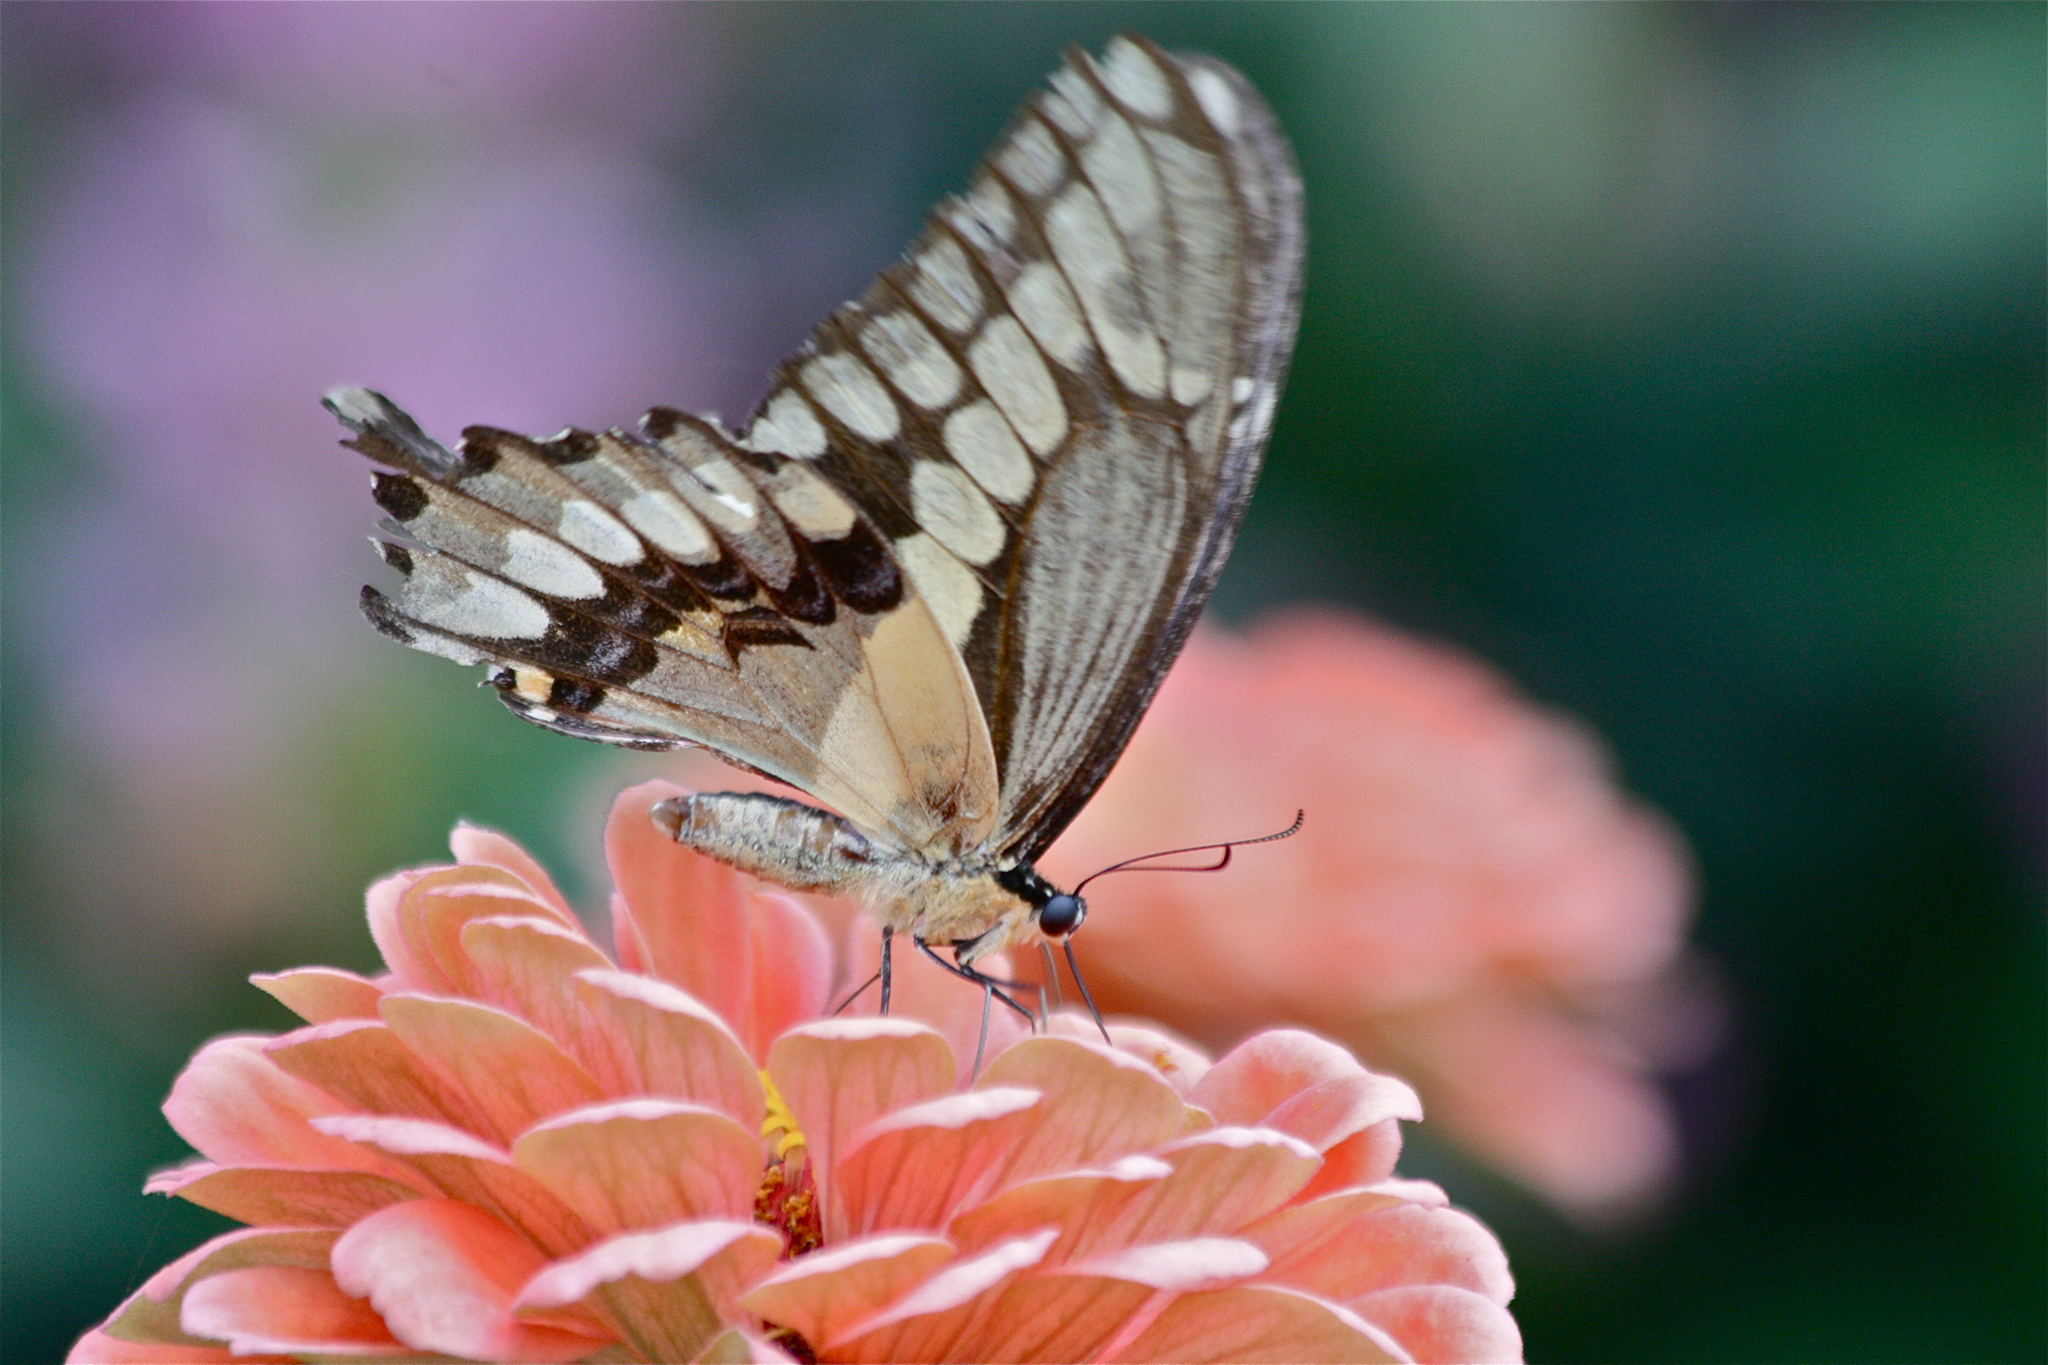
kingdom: Animalia
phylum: Arthropoda
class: Insecta
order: Lepidoptera
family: Papilionidae
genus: Papilio
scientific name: Papilio cresphontes
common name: Giant swallowtail
